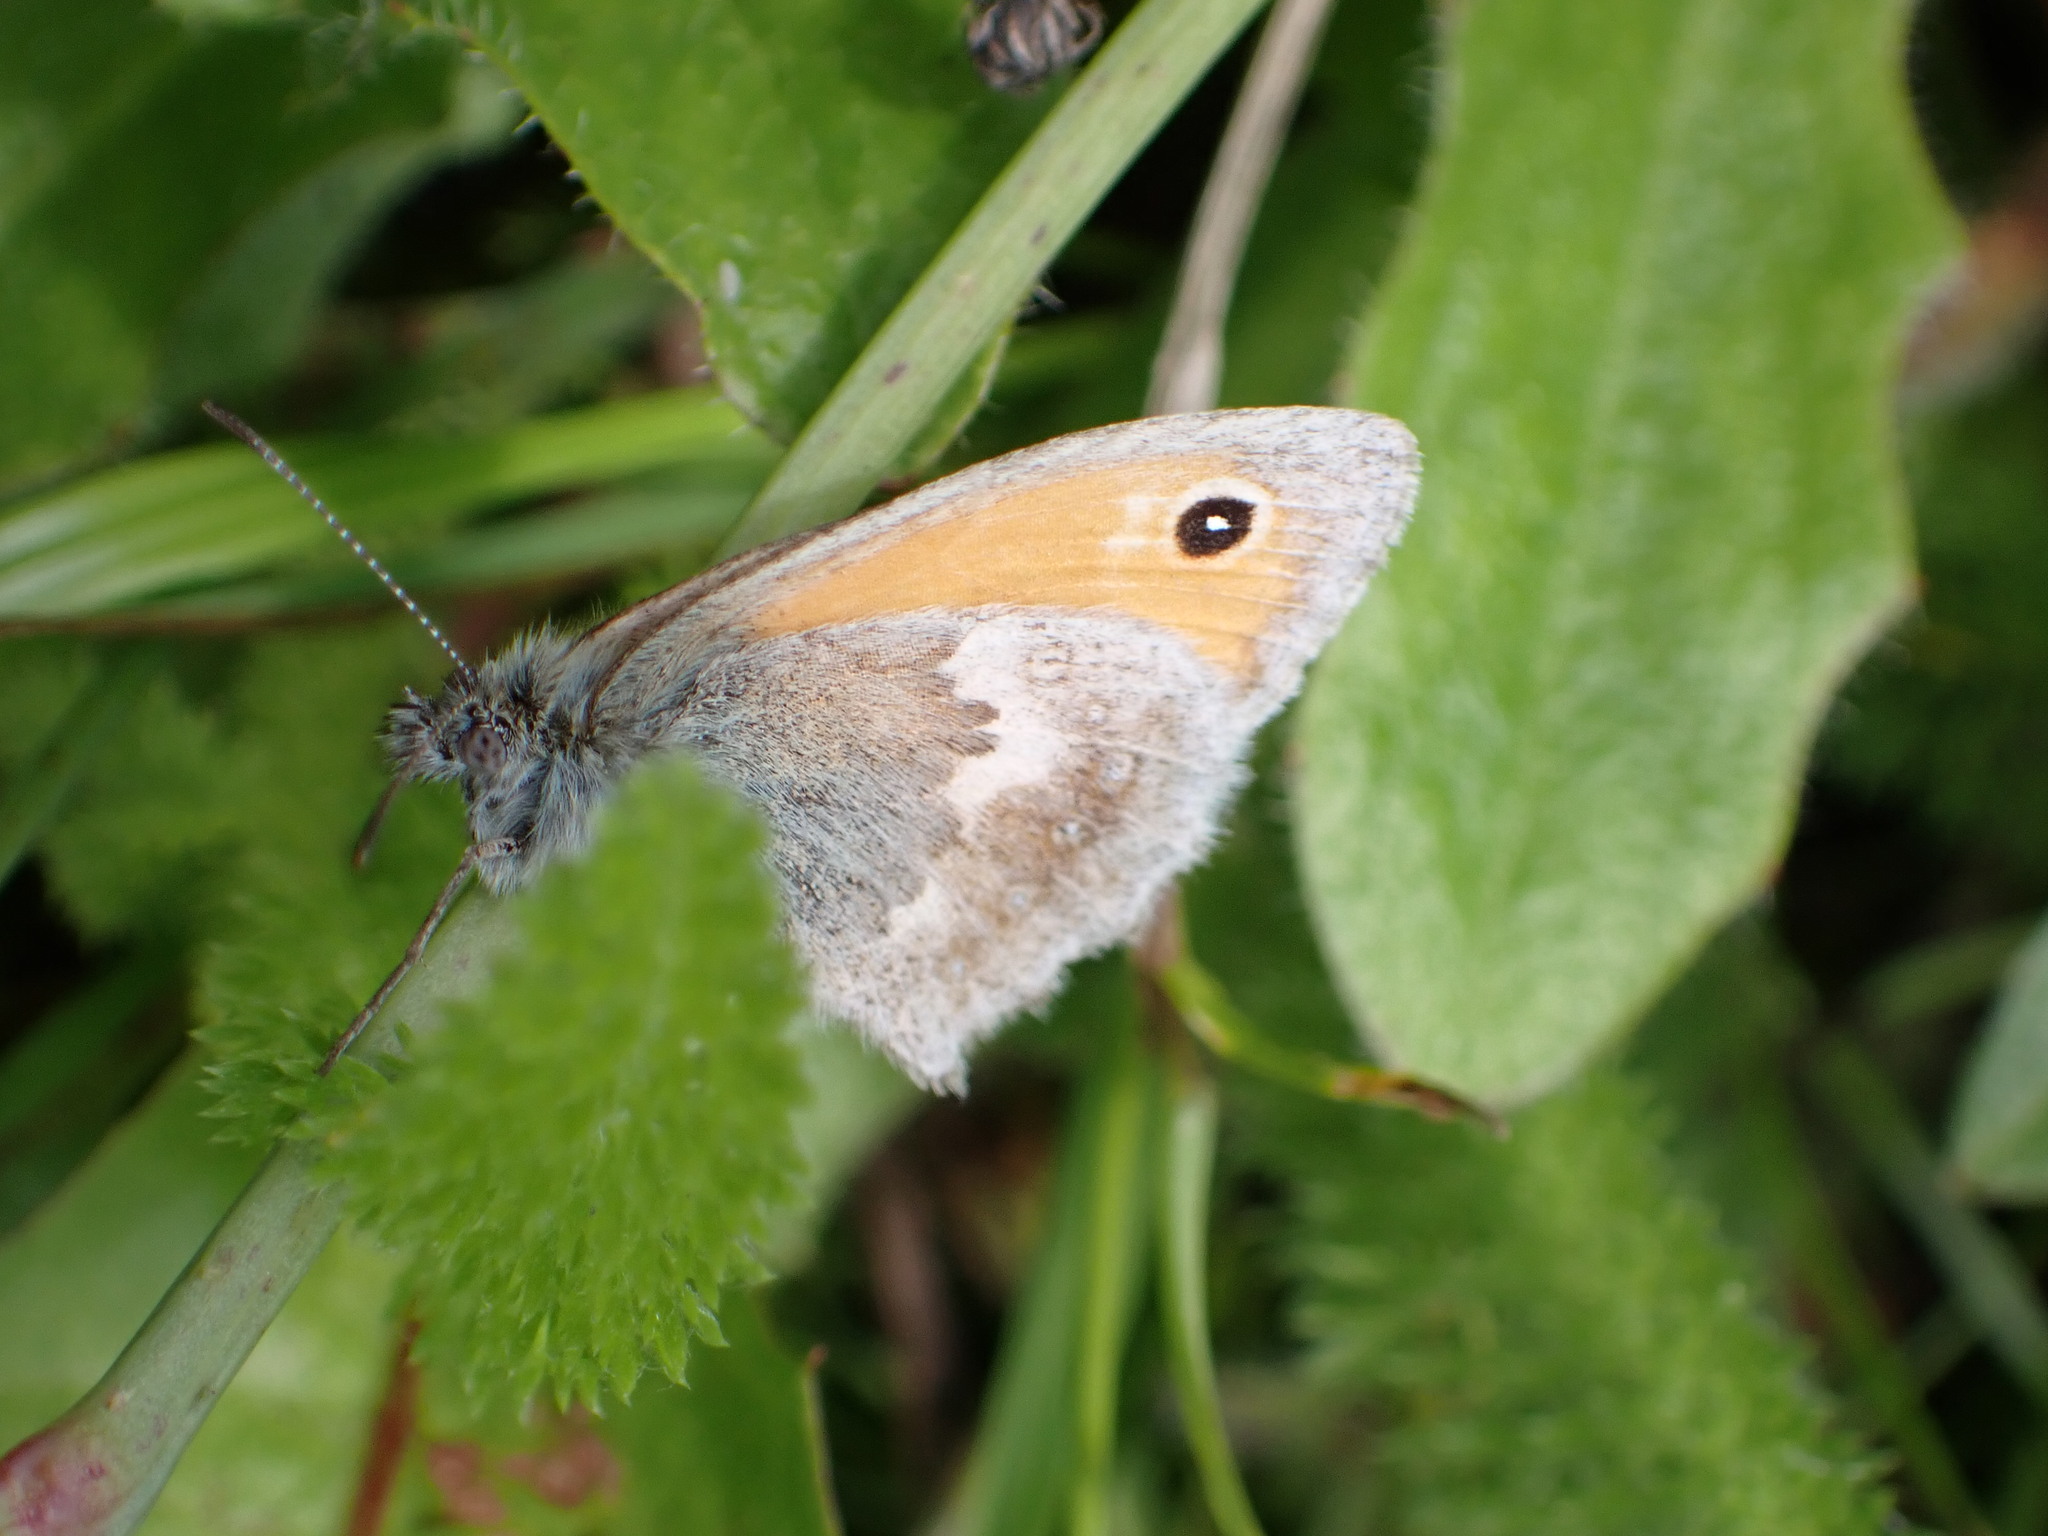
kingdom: Animalia
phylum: Arthropoda
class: Insecta
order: Lepidoptera
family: Nymphalidae
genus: Coenonympha
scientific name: Coenonympha pamphilus
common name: Small heath
